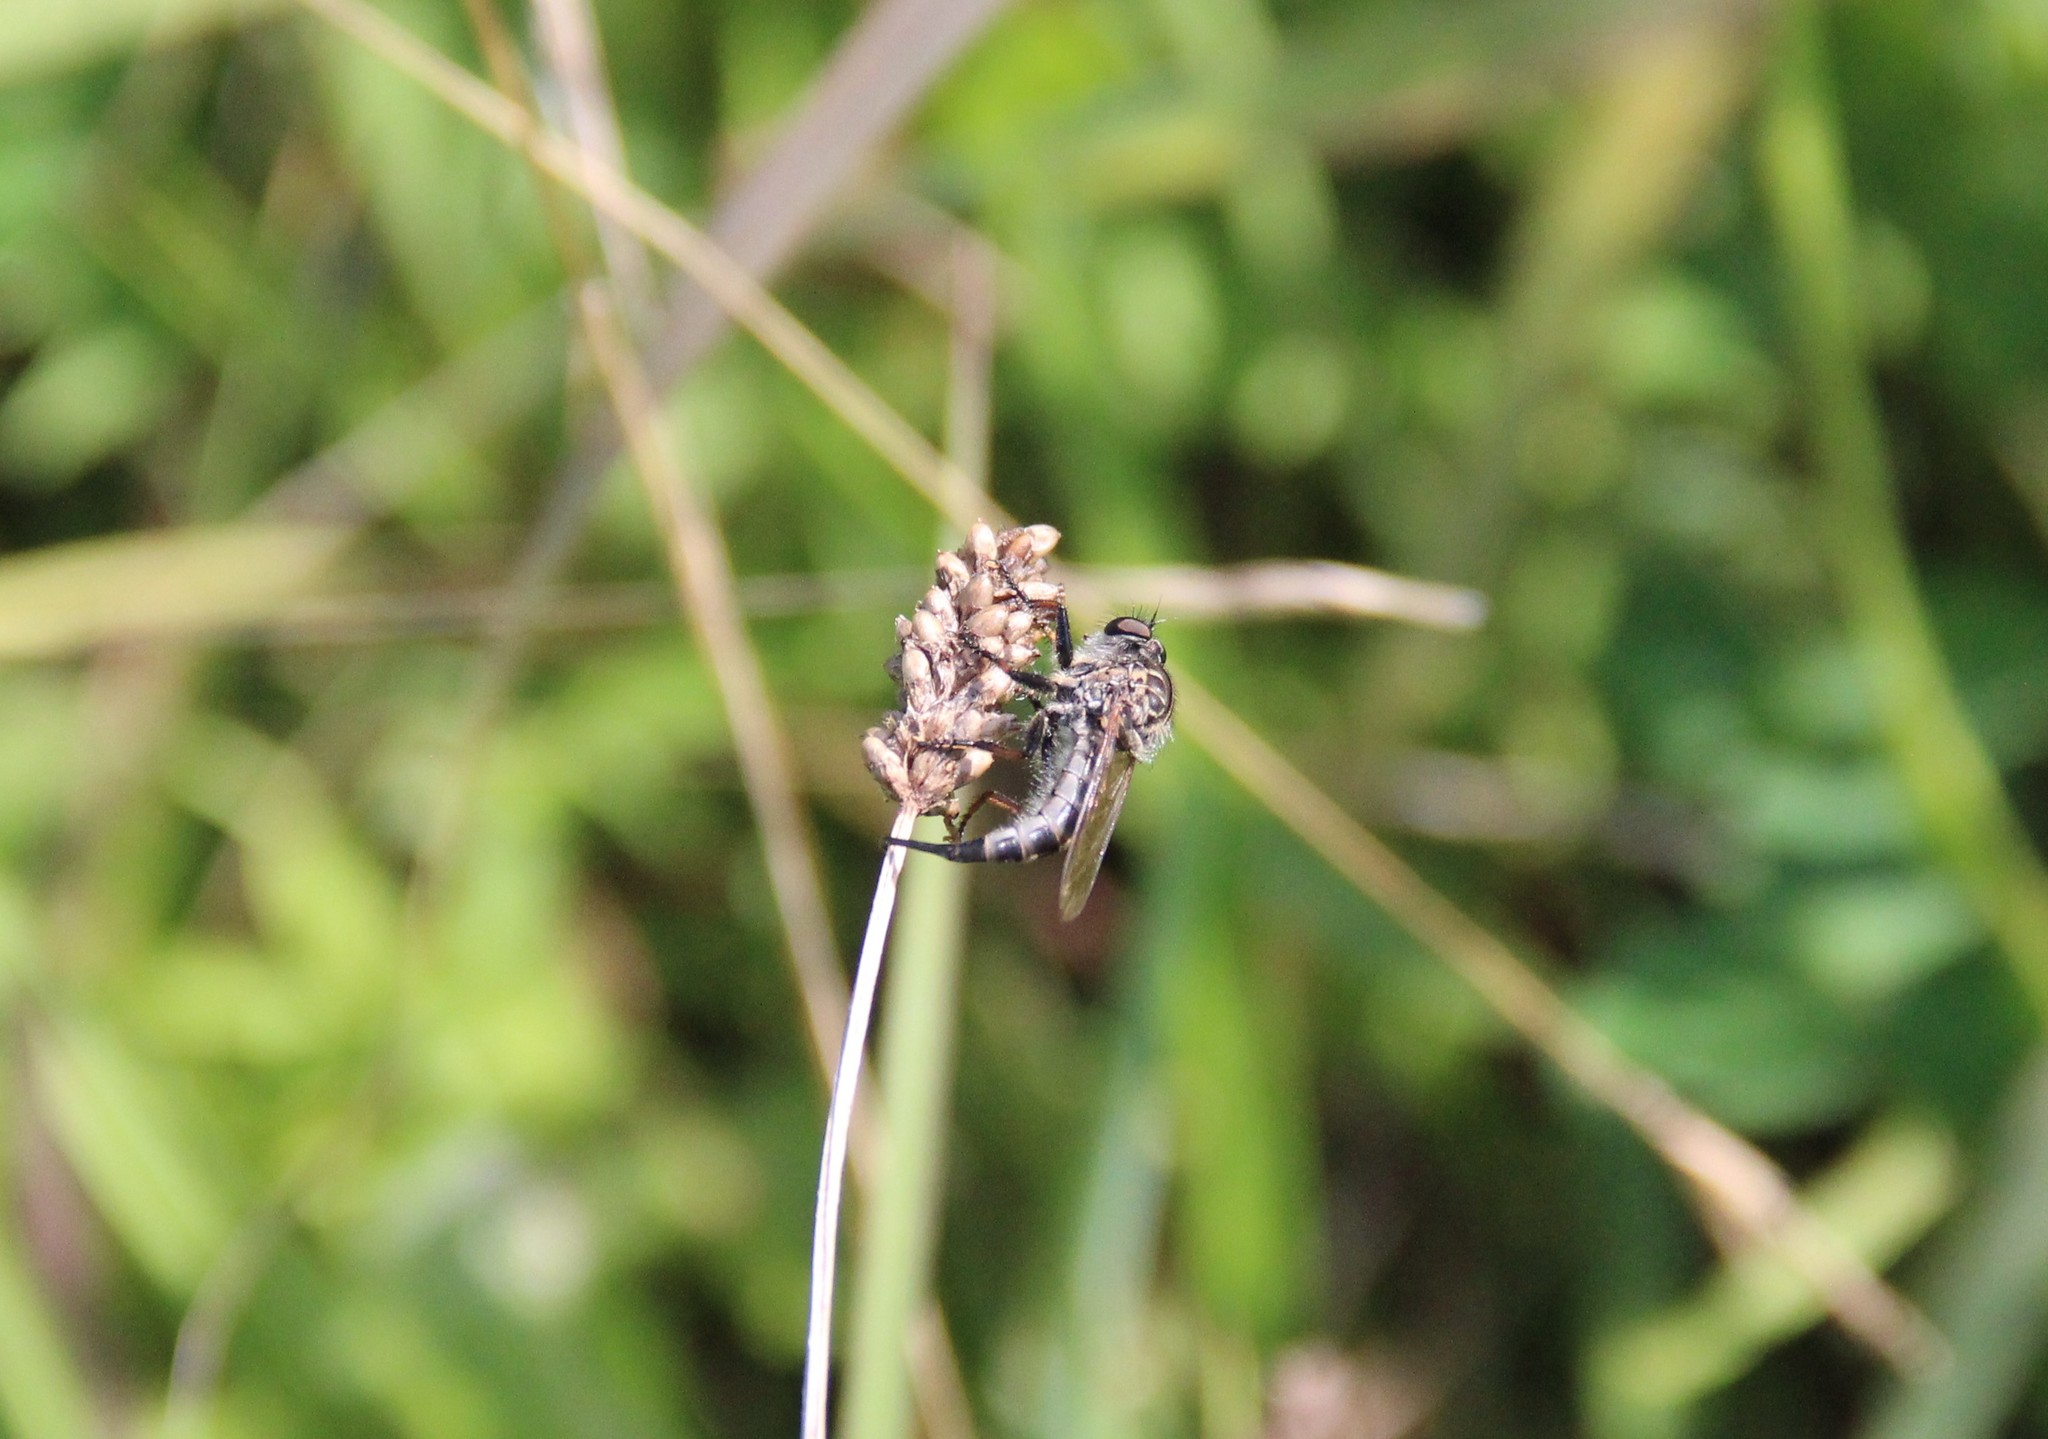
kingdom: Animalia
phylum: Arthropoda
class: Insecta
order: Diptera
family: Asilidae
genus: Efferia
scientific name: Efferia aestuans
